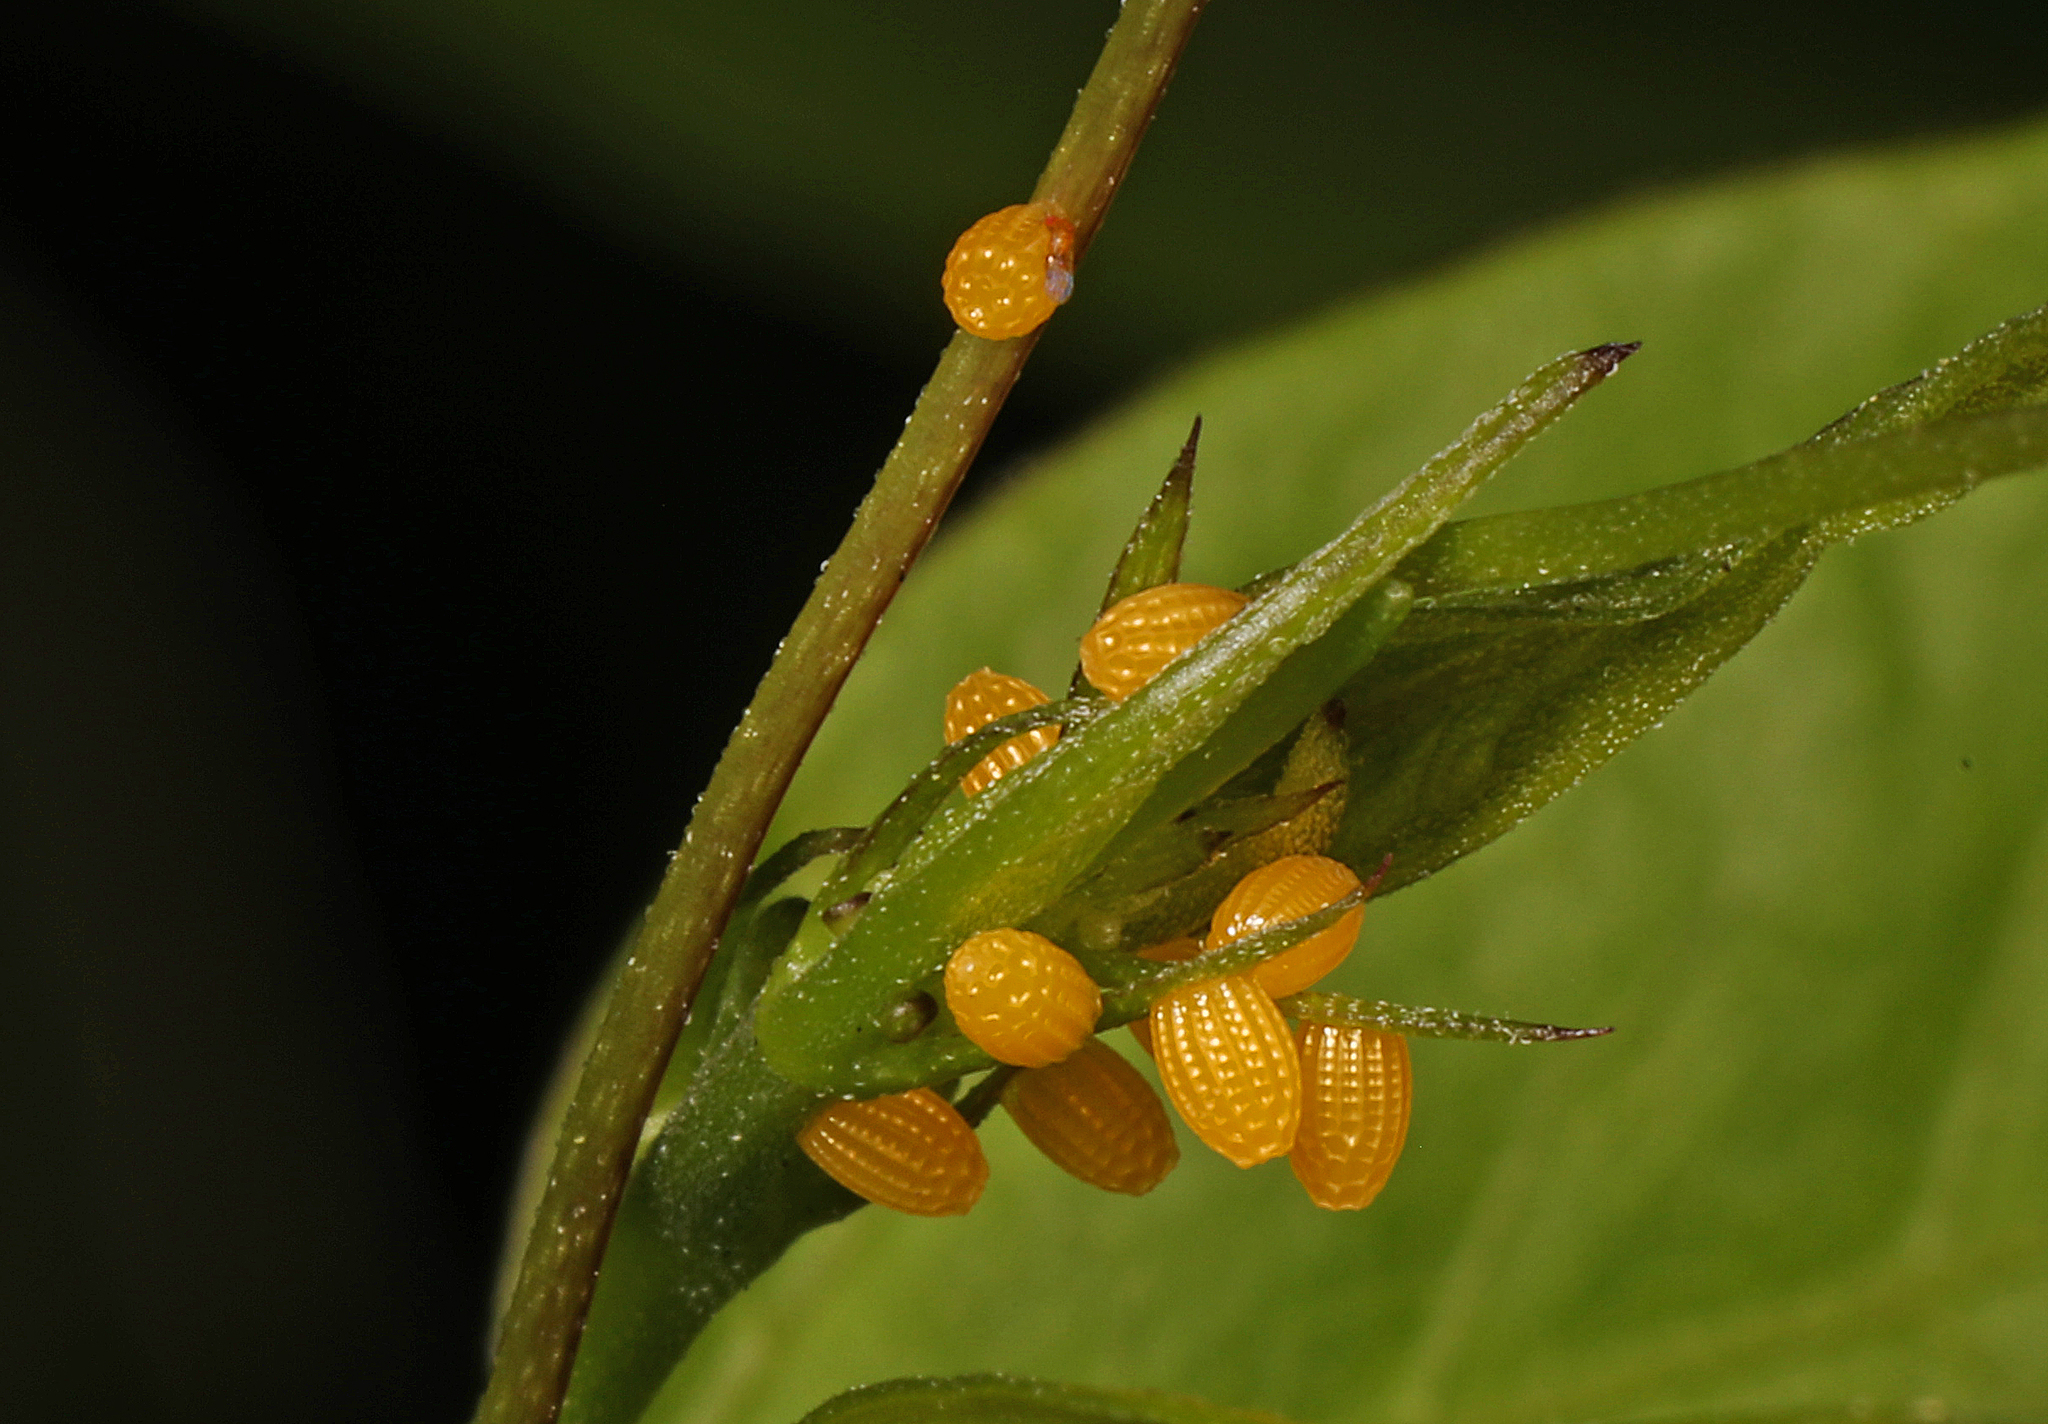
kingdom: Animalia
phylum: Arthropoda
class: Insecta
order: Lepidoptera
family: Nymphalidae
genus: Heliconius
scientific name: Heliconius charithonia
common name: Zebra long wing
